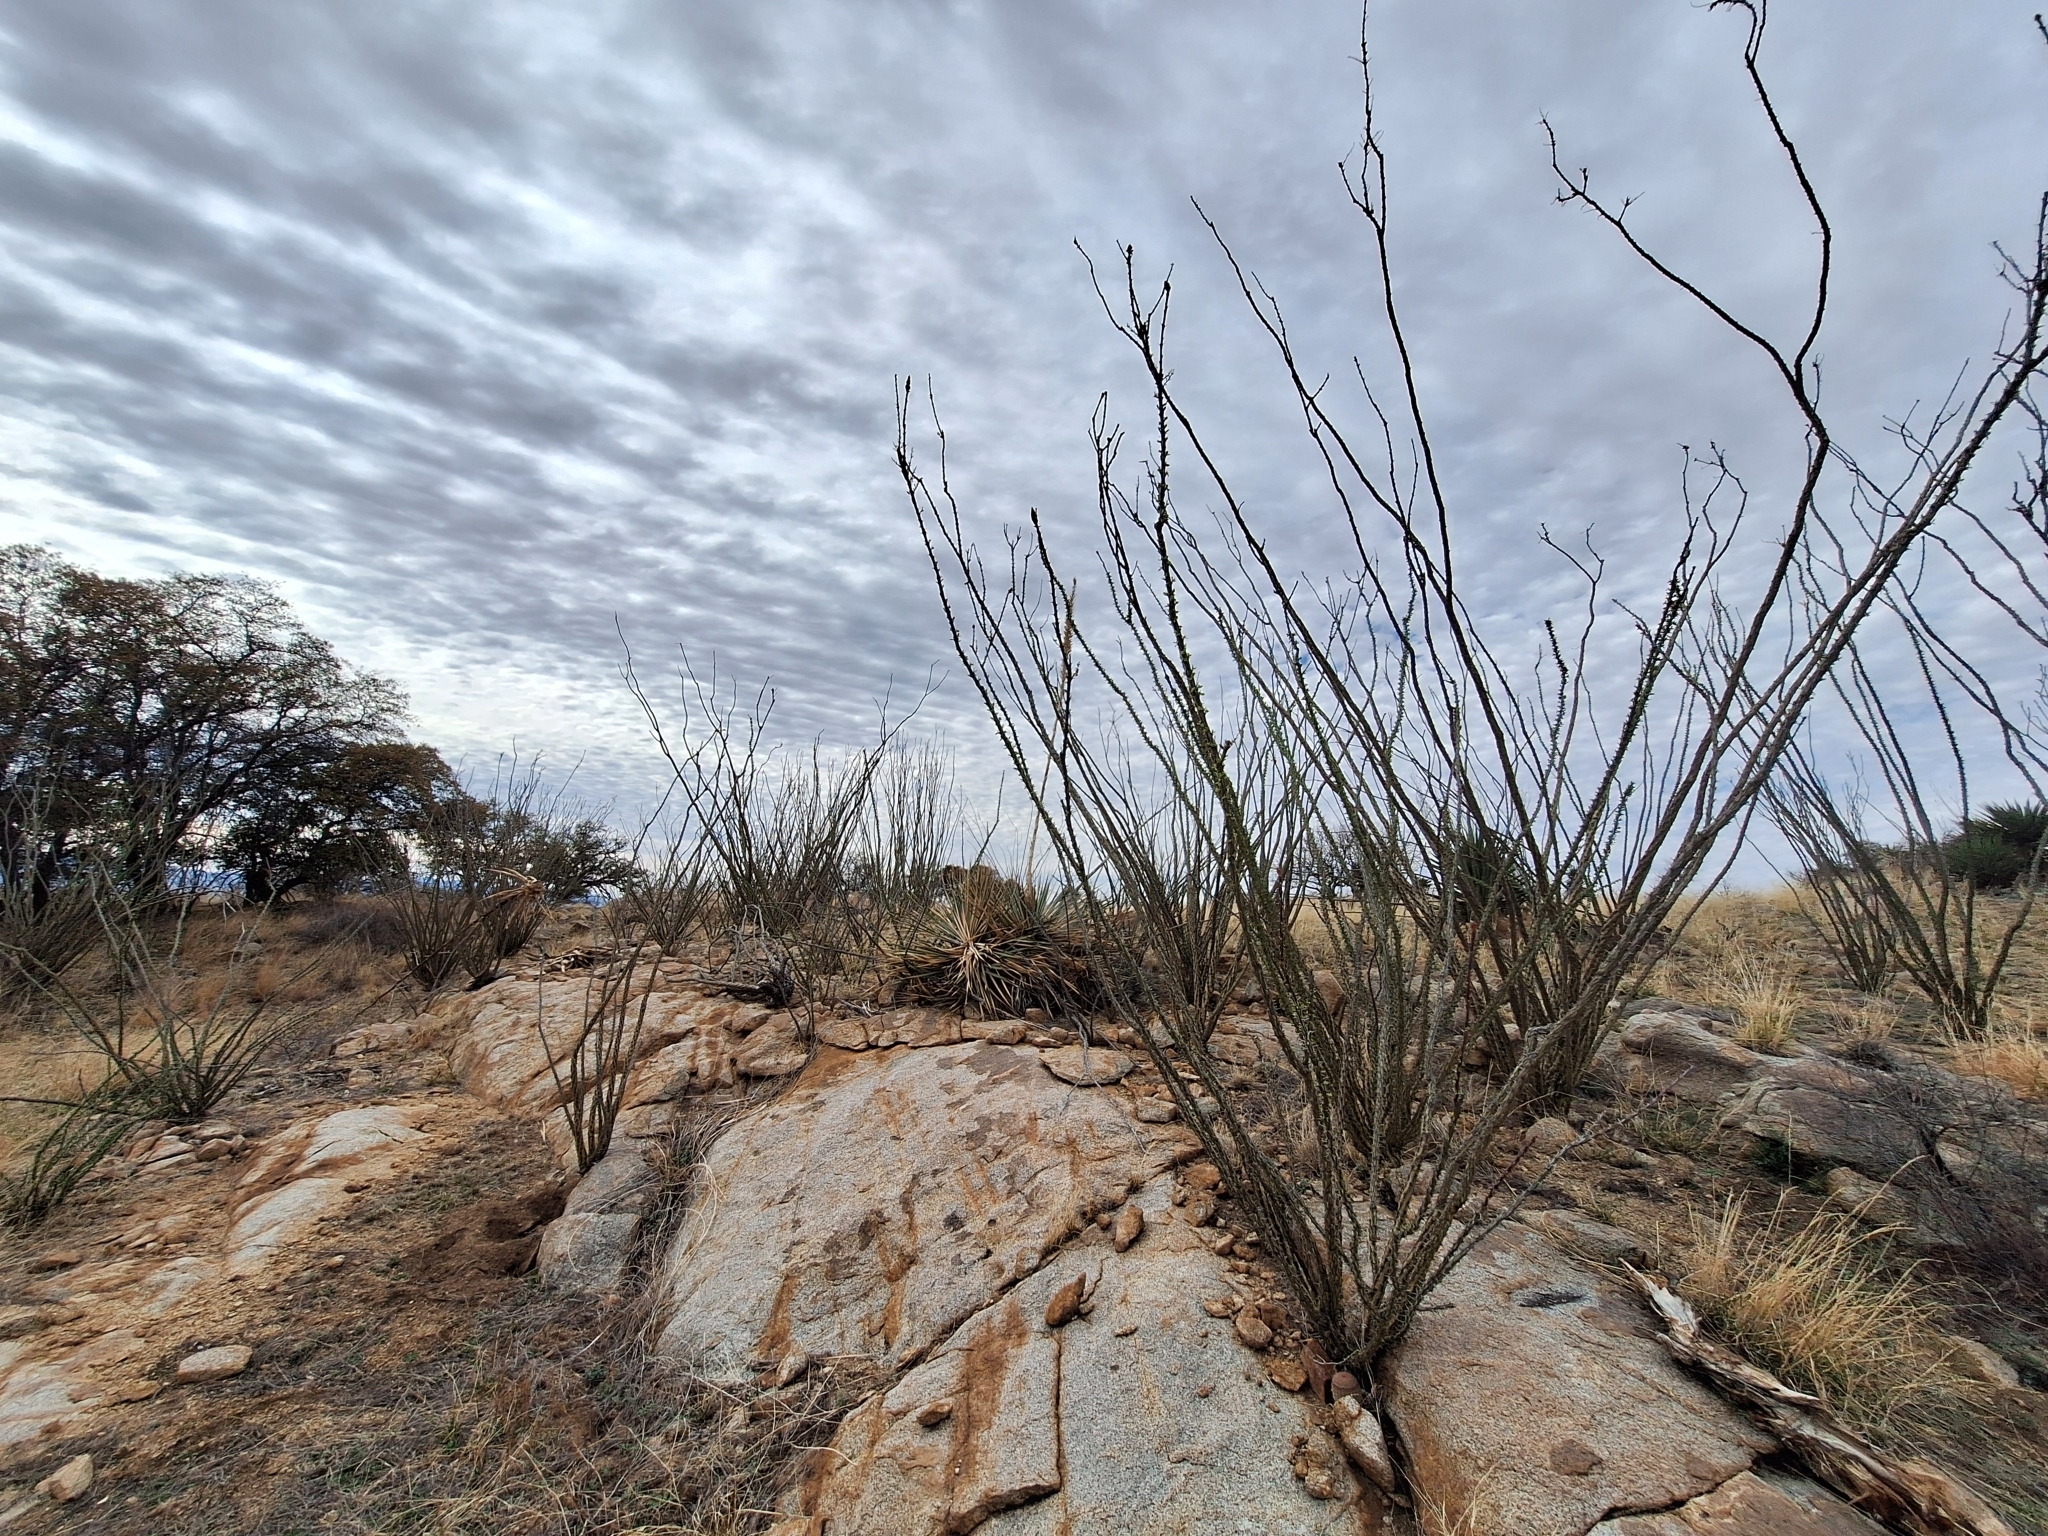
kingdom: Plantae
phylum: Tracheophyta
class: Magnoliopsida
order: Ericales
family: Fouquieriaceae
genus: Fouquieria
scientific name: Fouquieria splendens
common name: Vine-cactus
